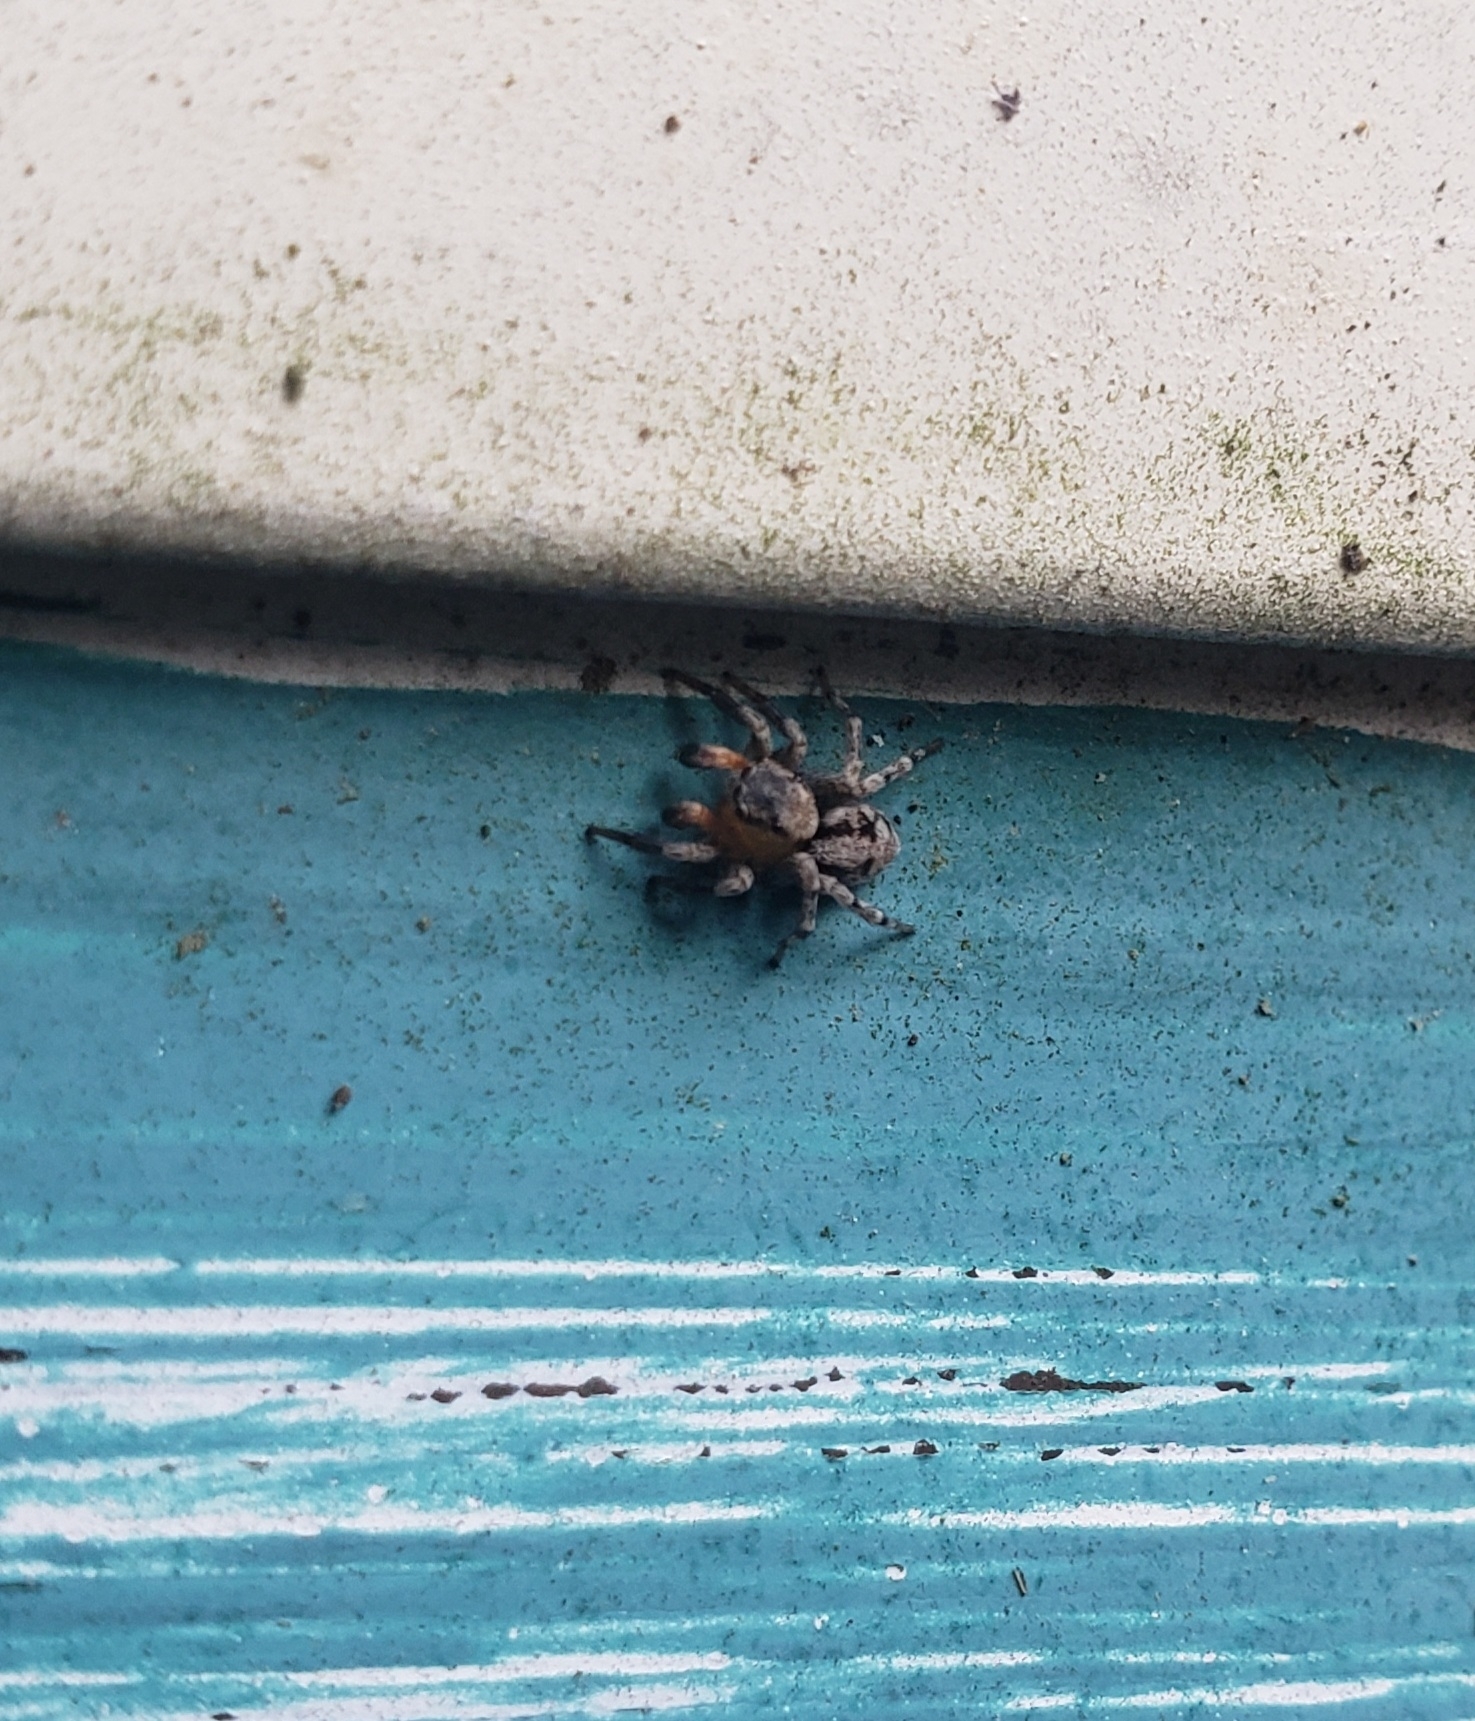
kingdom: Animalia
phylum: Arthropoda
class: Arachnida
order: Araneae
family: Salticidae
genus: Naphrys
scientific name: Naphrys pulex
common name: Flea jumping spider
